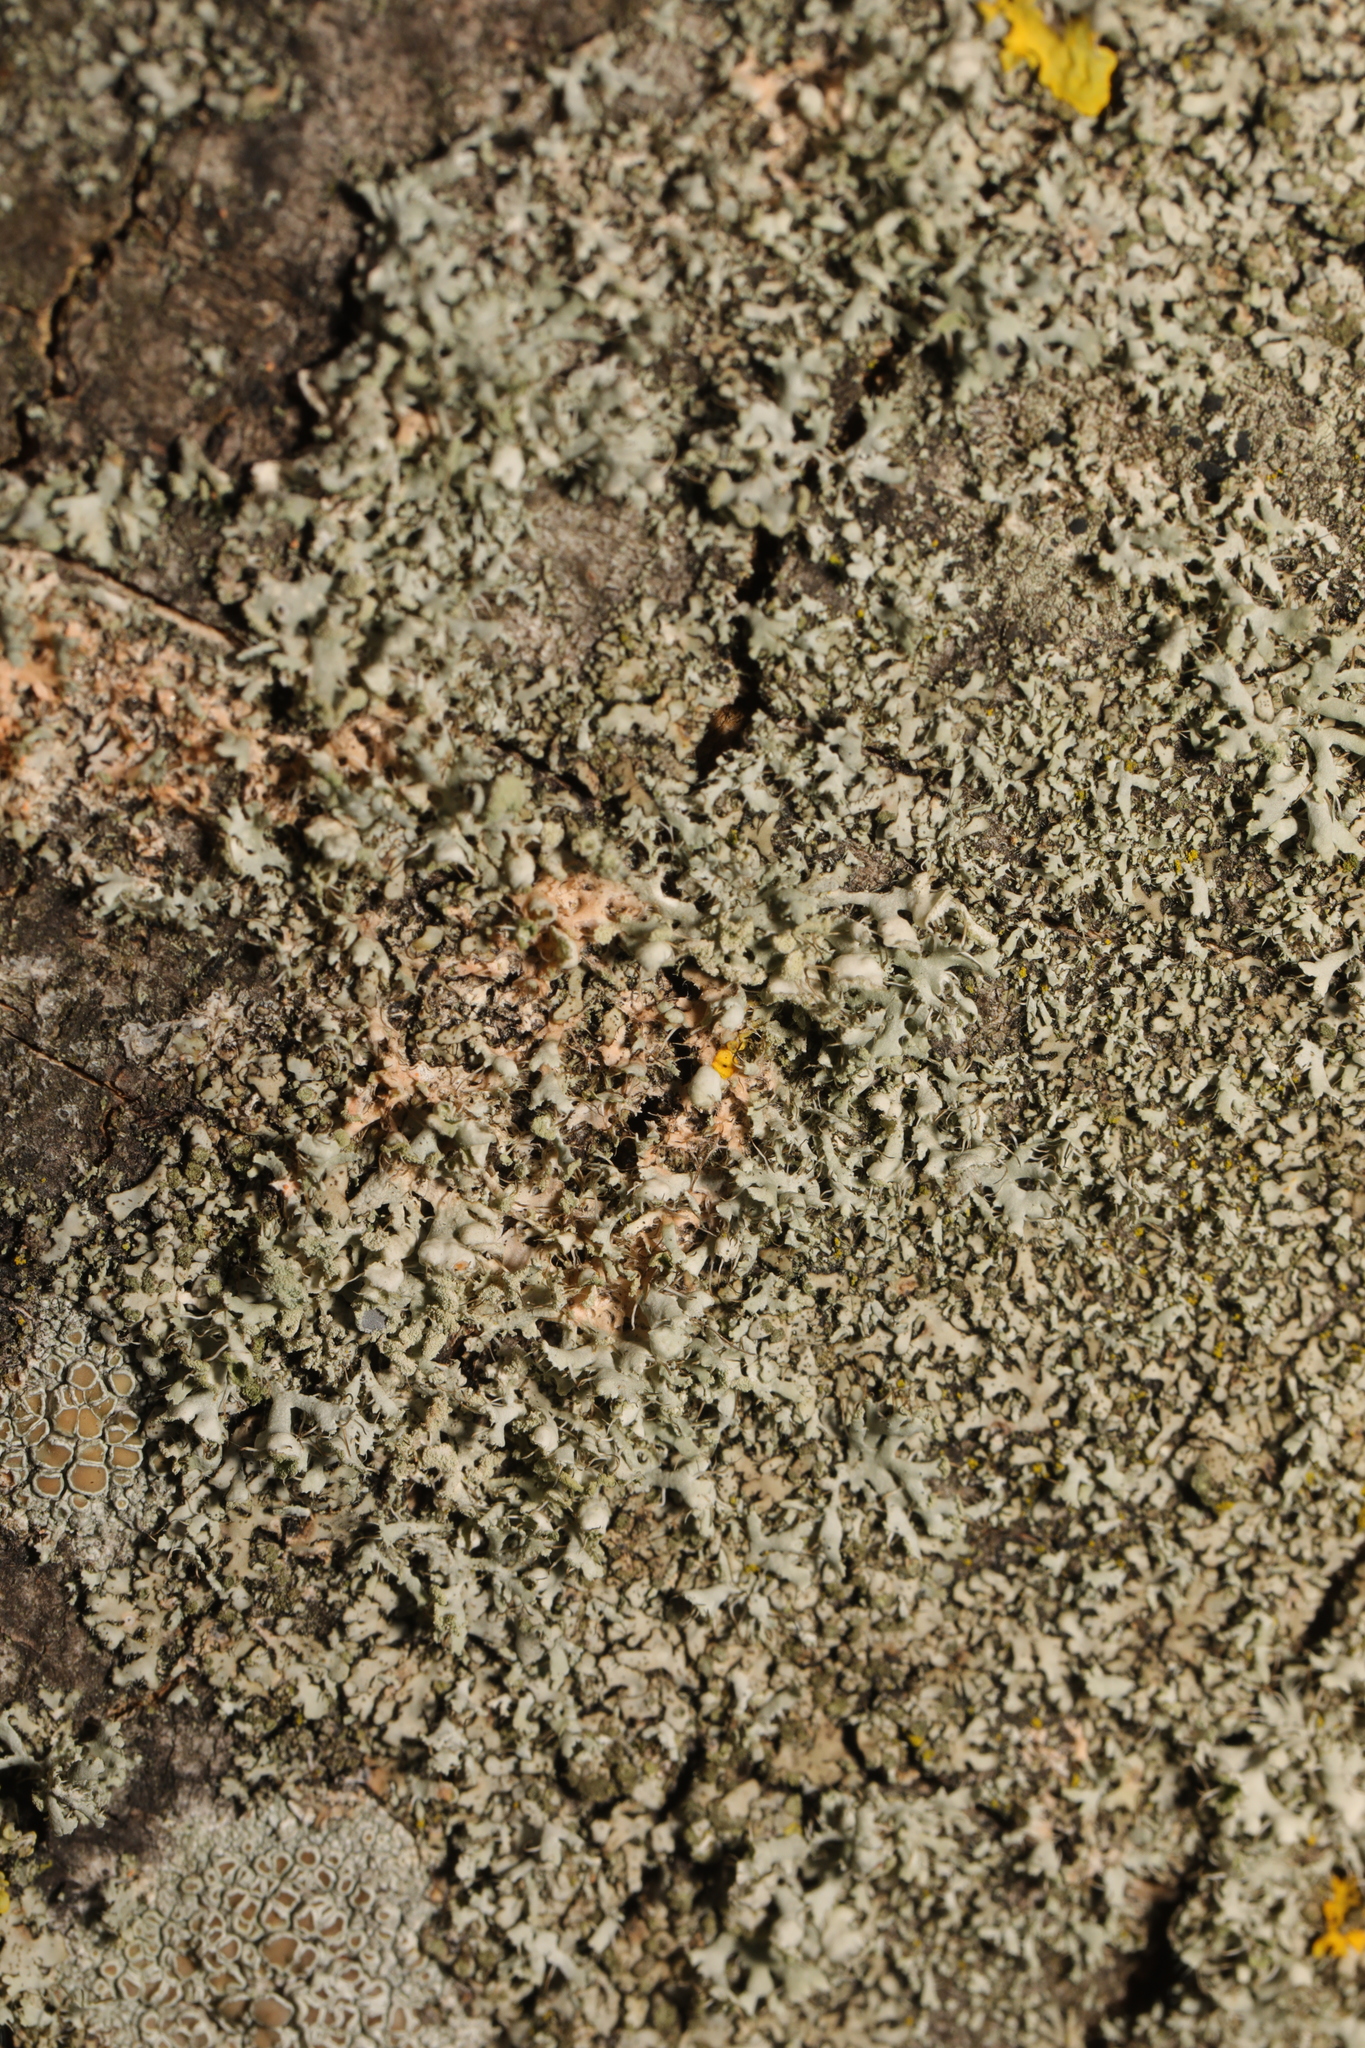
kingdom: Fungi
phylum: Ascomycota
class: Lecanoromycetes
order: Caliciales
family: Physciaceae
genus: Physcia
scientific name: Physcia adscendens
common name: Hooded rosette lichen
